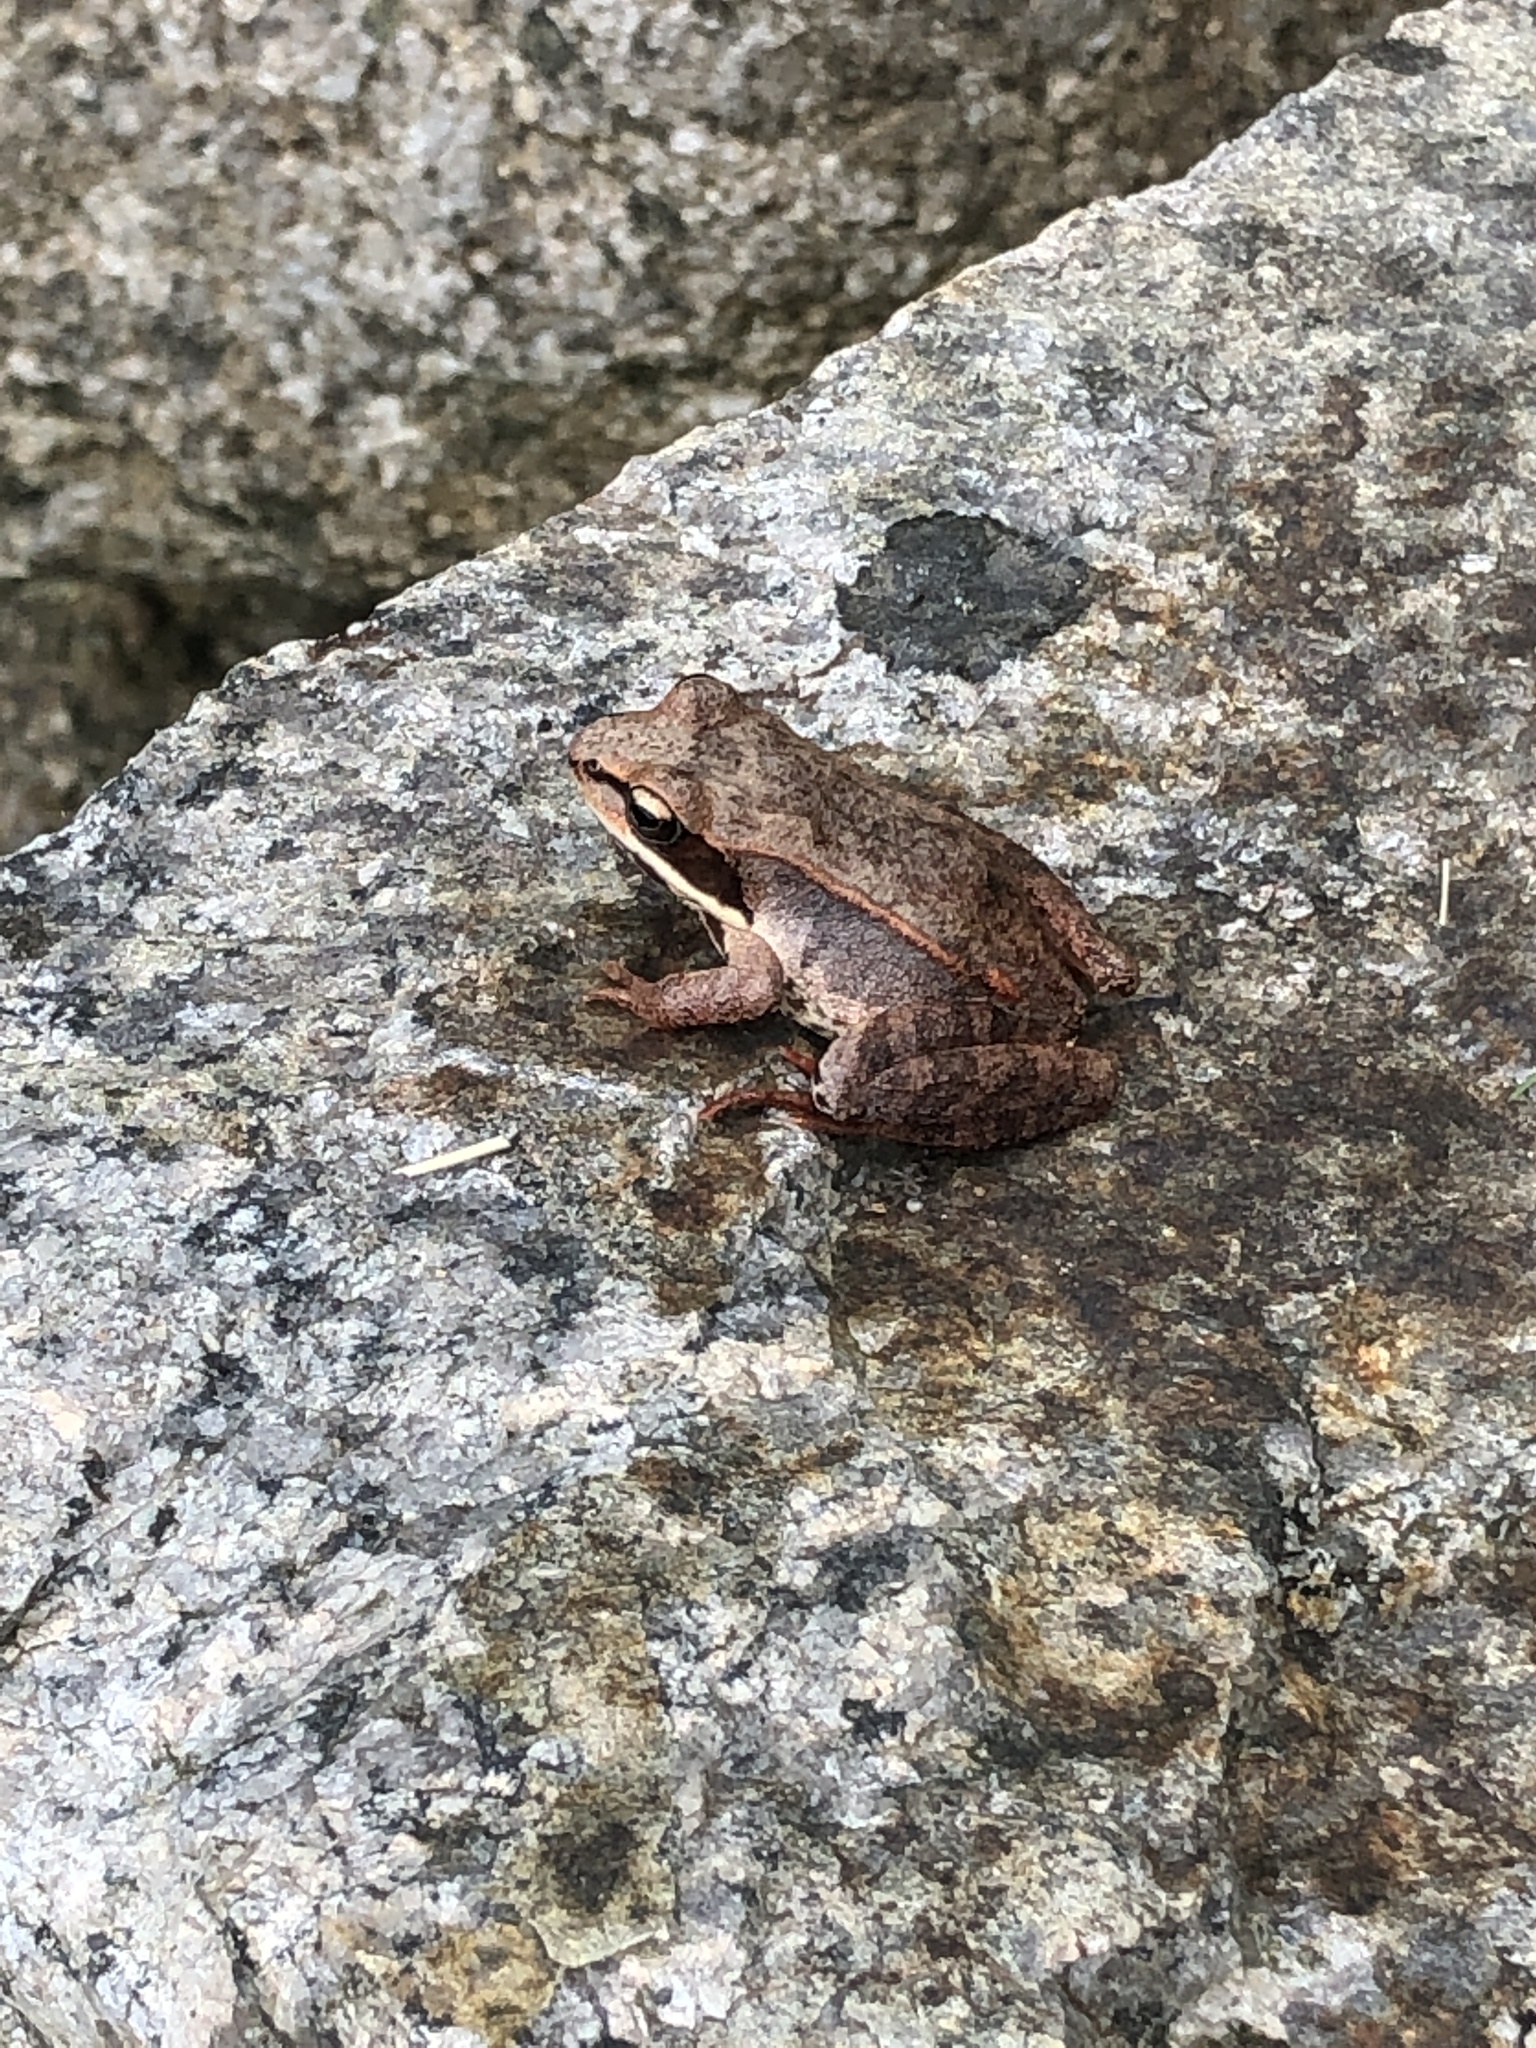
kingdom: Animalia
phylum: Chordata
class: Amphibia
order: Anura
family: Ranidae
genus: Lithobates
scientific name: Lithobates sylvaticus
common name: Wood frog
